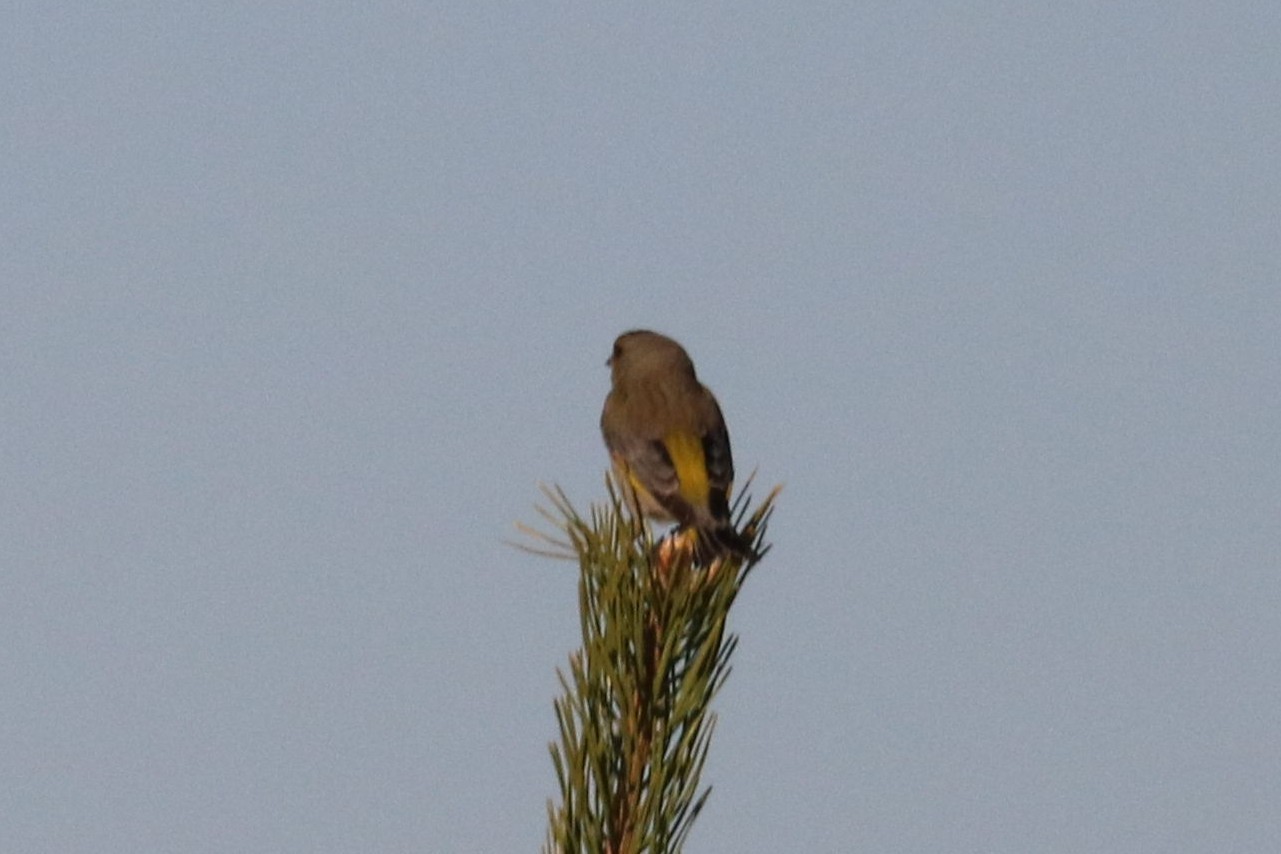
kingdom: Plantae
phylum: Tracheophyta
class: Liliopsida
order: Poales
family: Poaceae
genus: Chloris
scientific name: Chloris chloris
